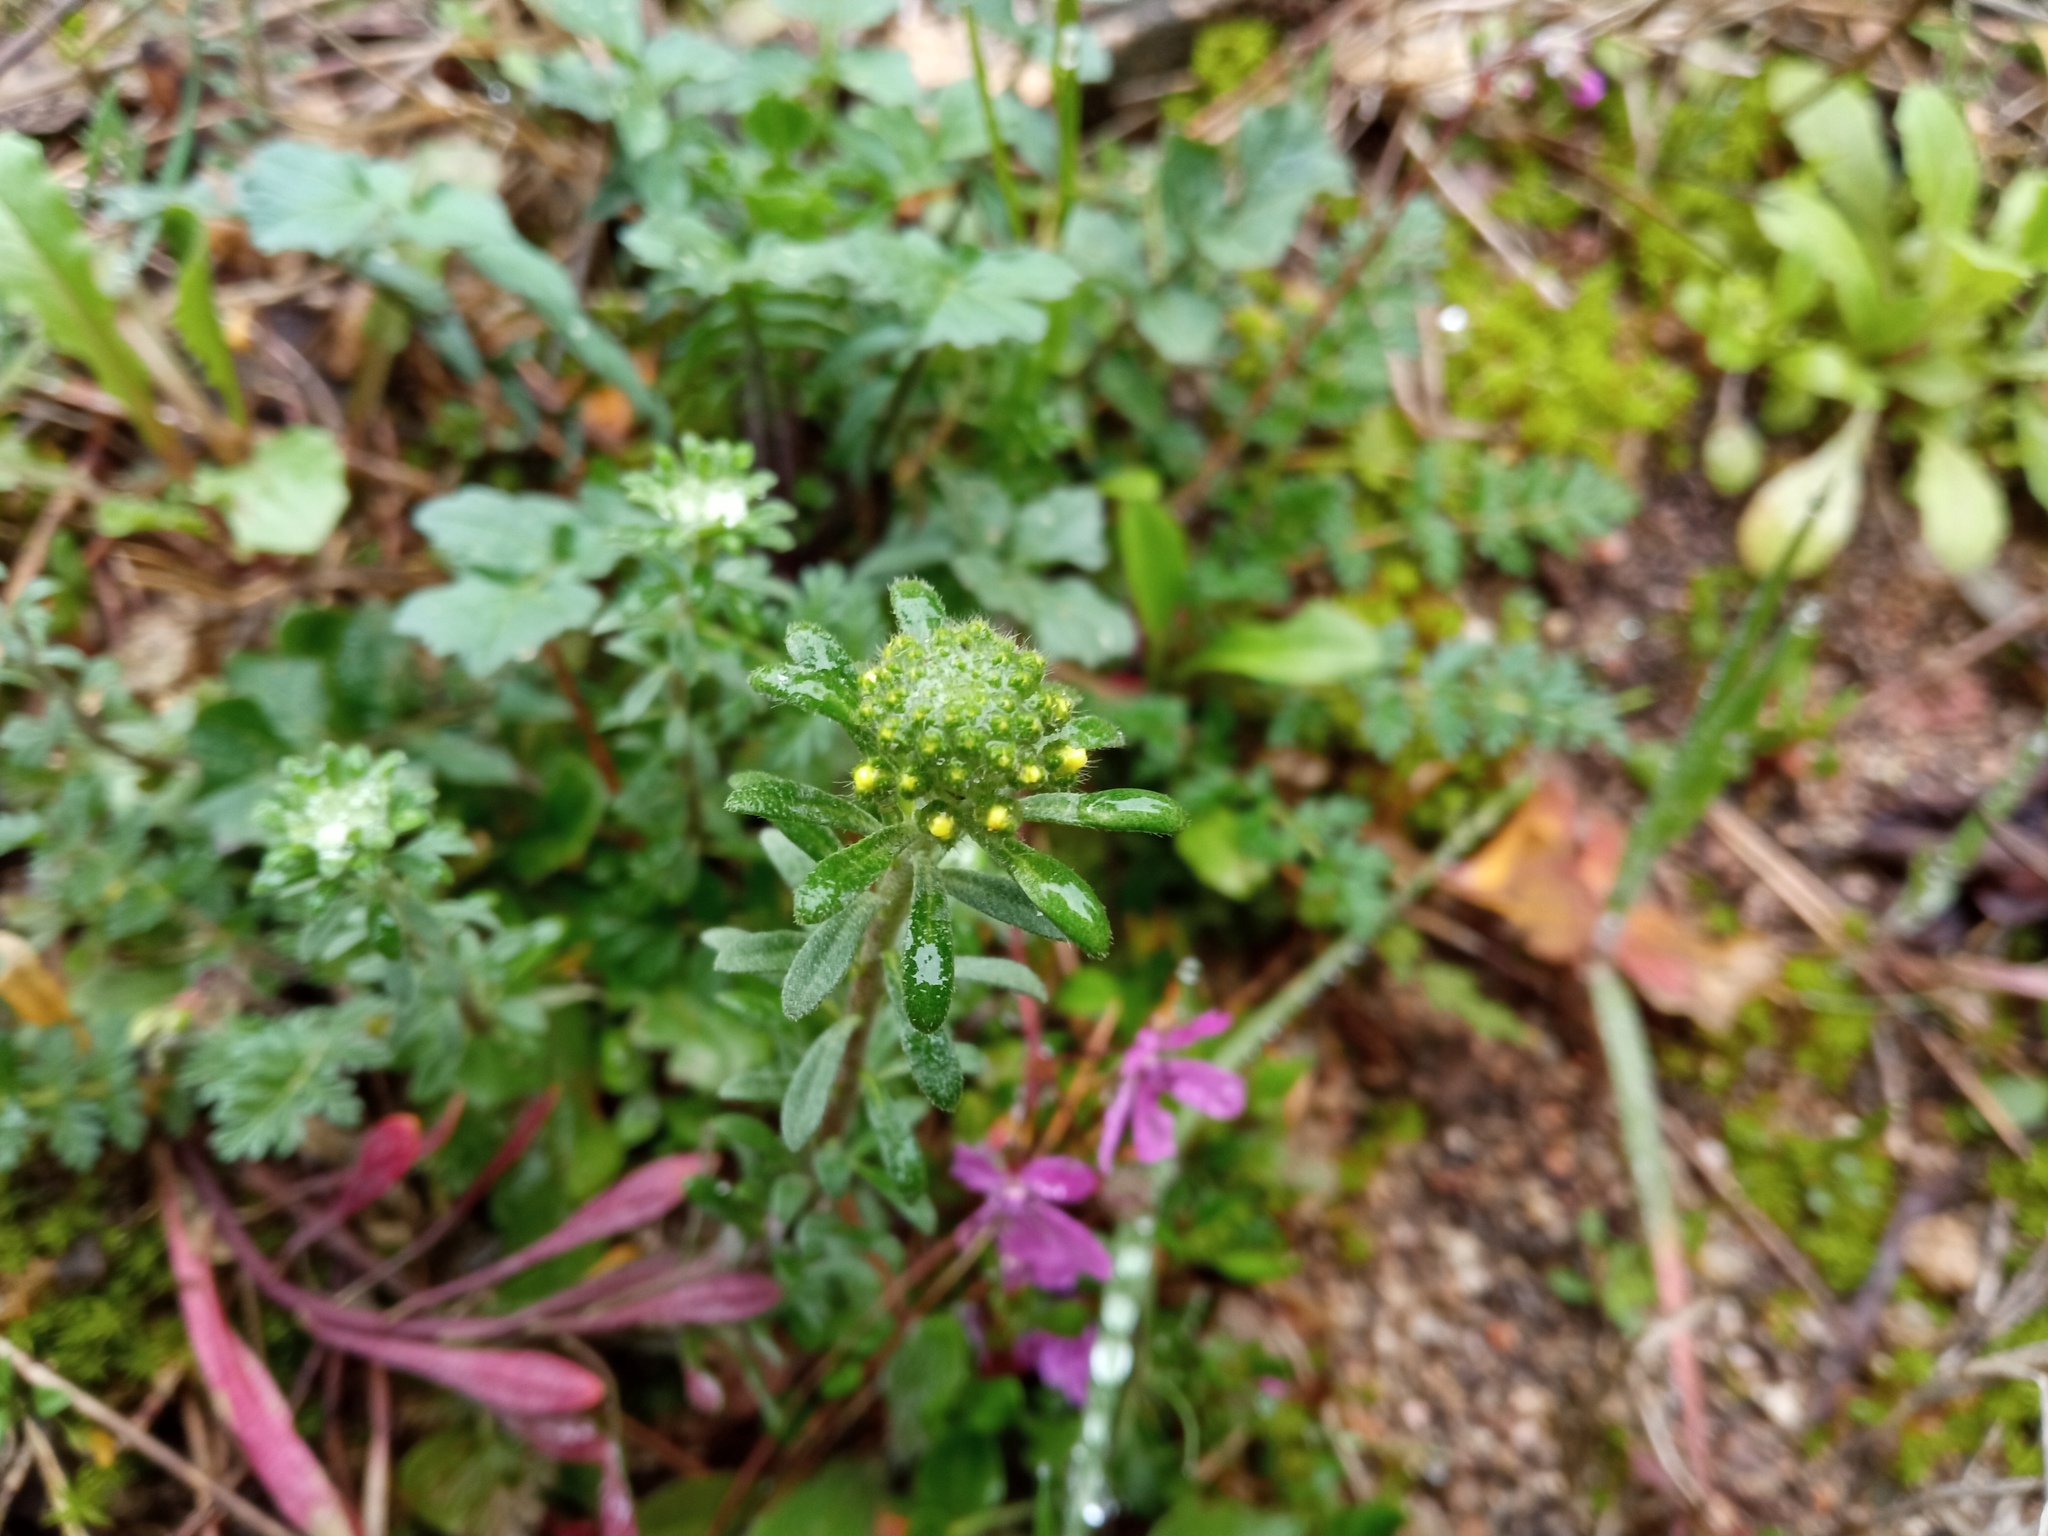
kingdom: Plantae
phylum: Tracheophyta
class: Magnoliopsida
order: Brassicales
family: Brassicaceae
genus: Alyssum
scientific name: Alyssum alyssoides
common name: Small alison
